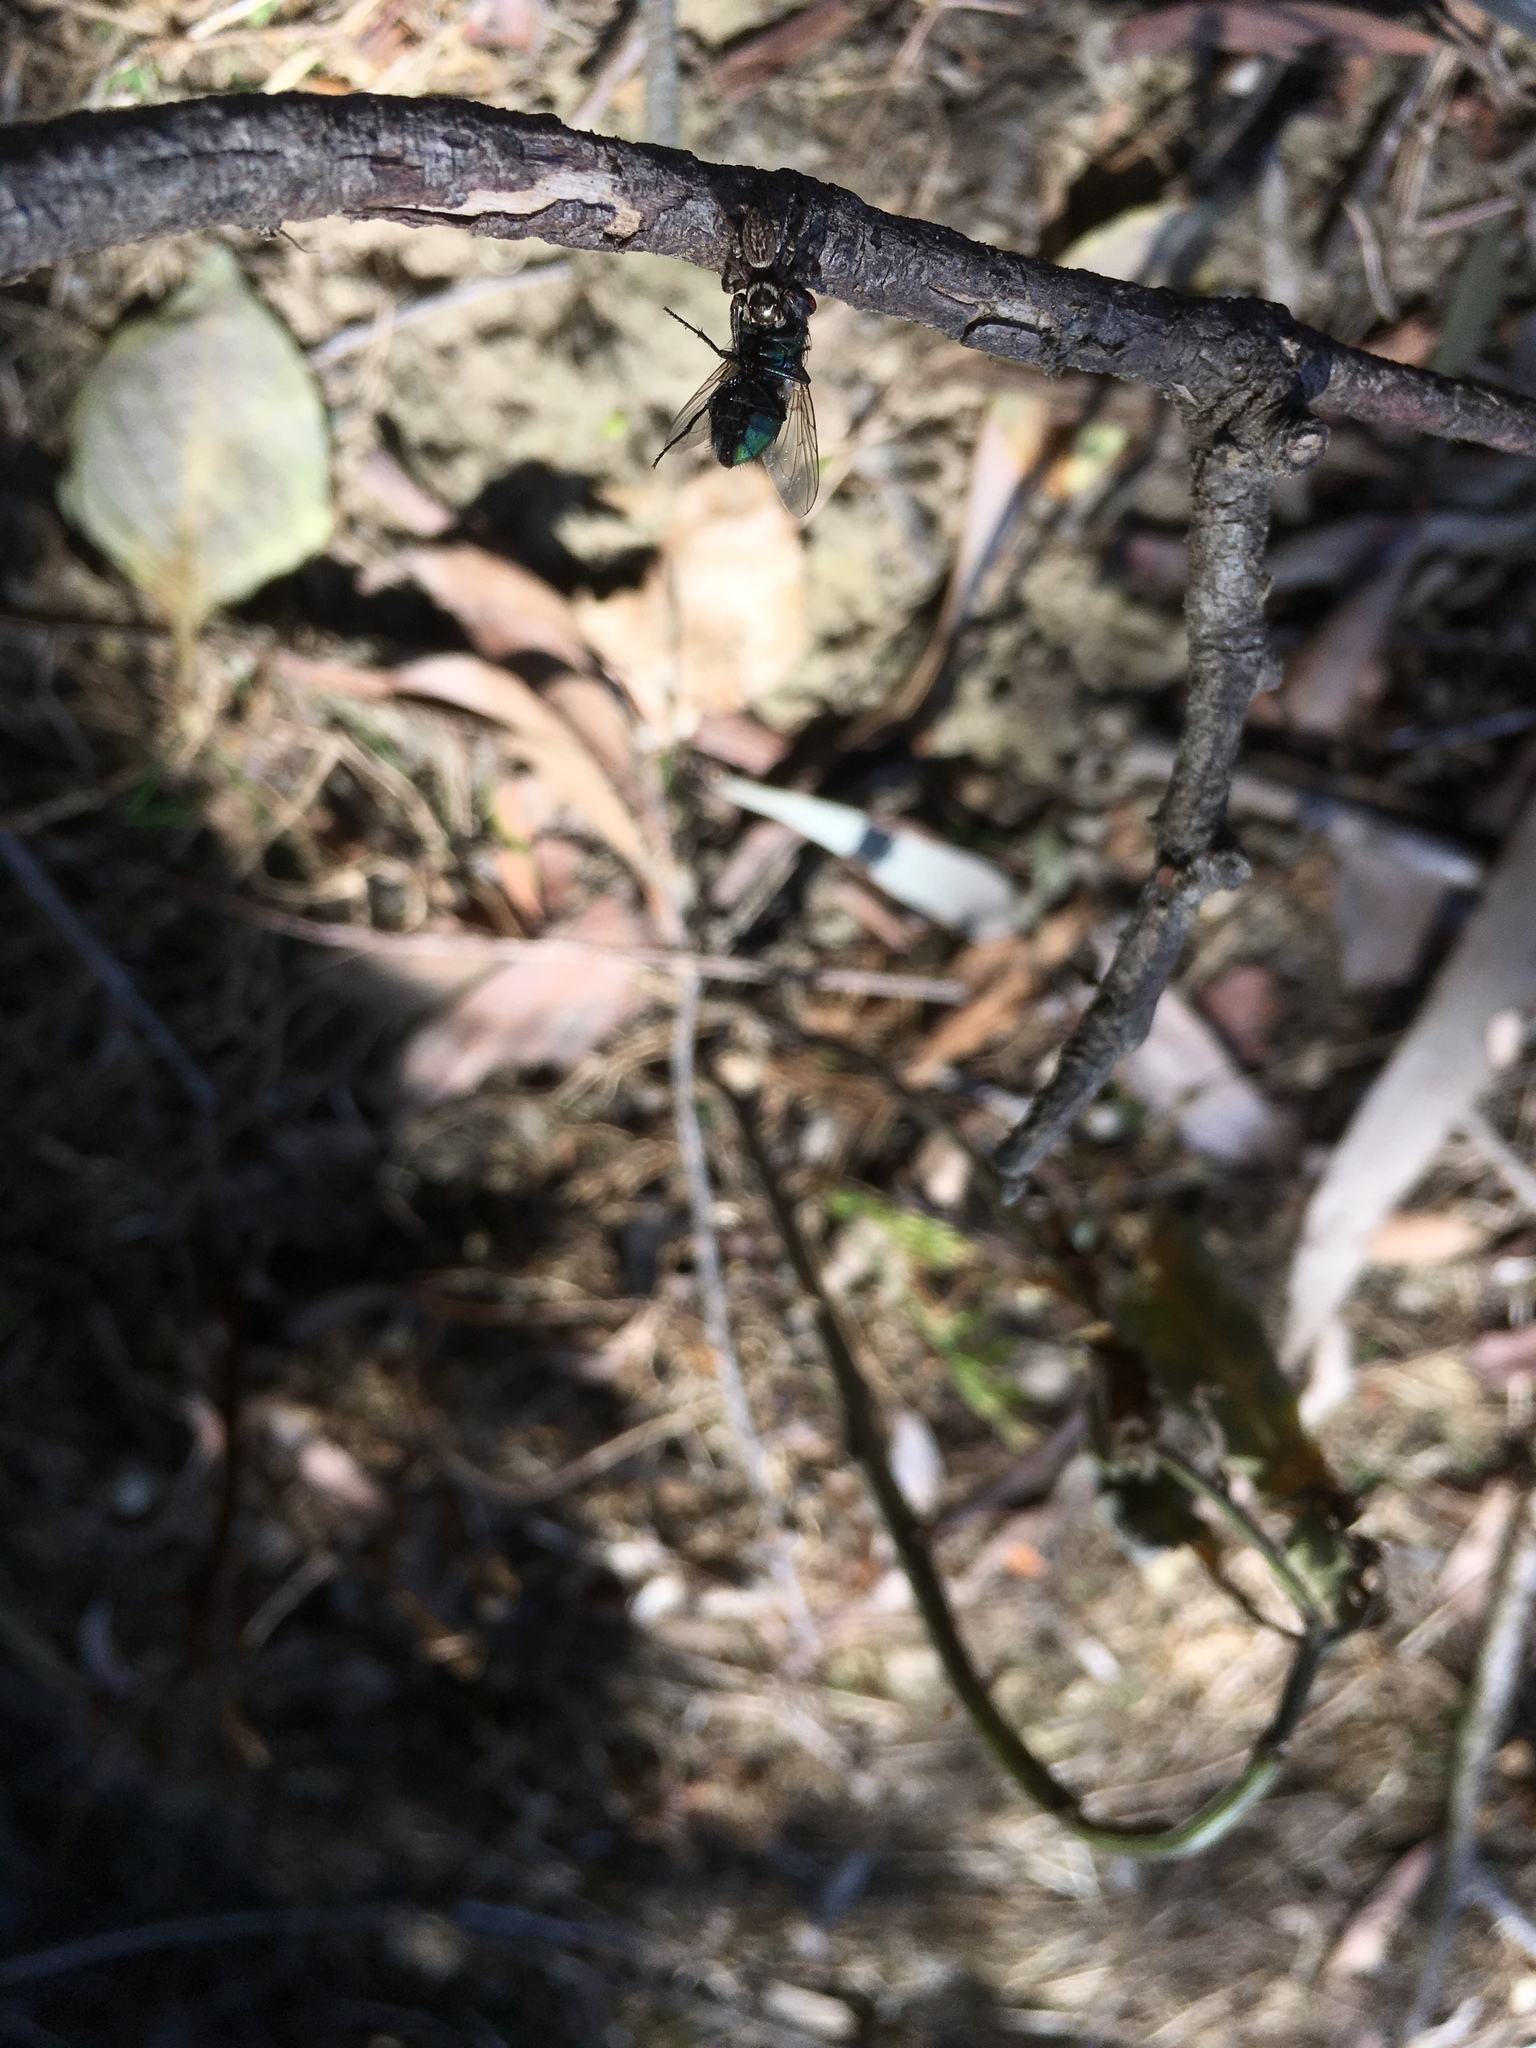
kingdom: Animalia
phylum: Arthropoda
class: Arachnida
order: Araneae
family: Salticidae
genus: Maratus
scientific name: Maratus griseus
